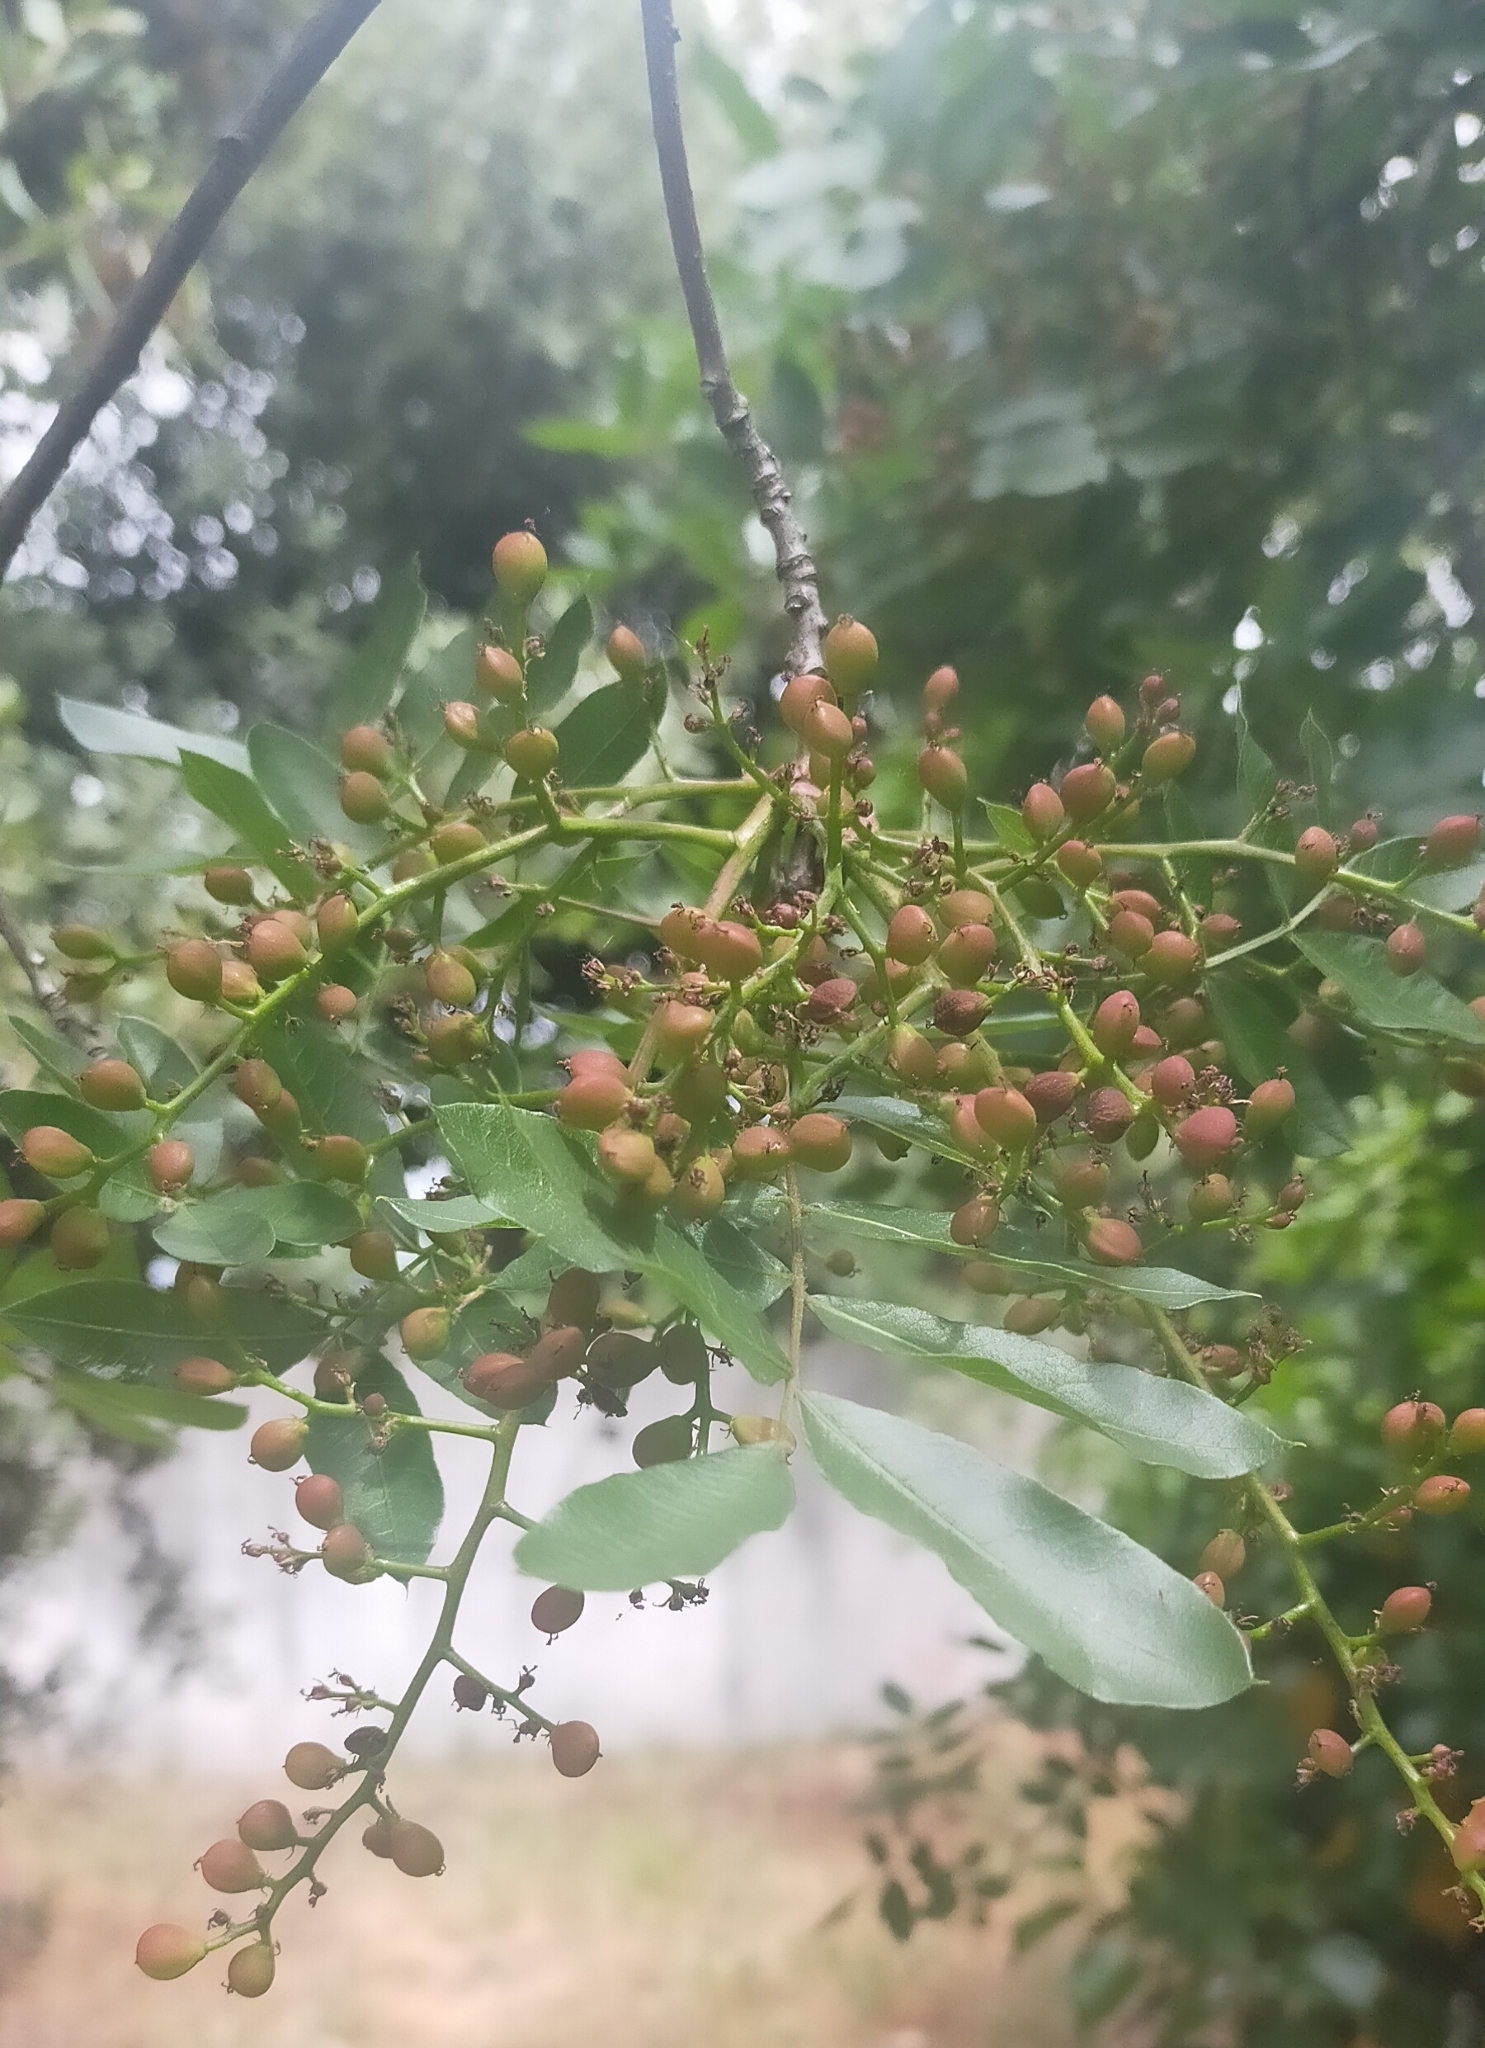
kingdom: Plantae
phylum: Tracheophyta
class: Magnoliopsida
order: Sapindales
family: Anacardiaceae
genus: Pistacia
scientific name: Pistacia terebinthus
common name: Terebinth
